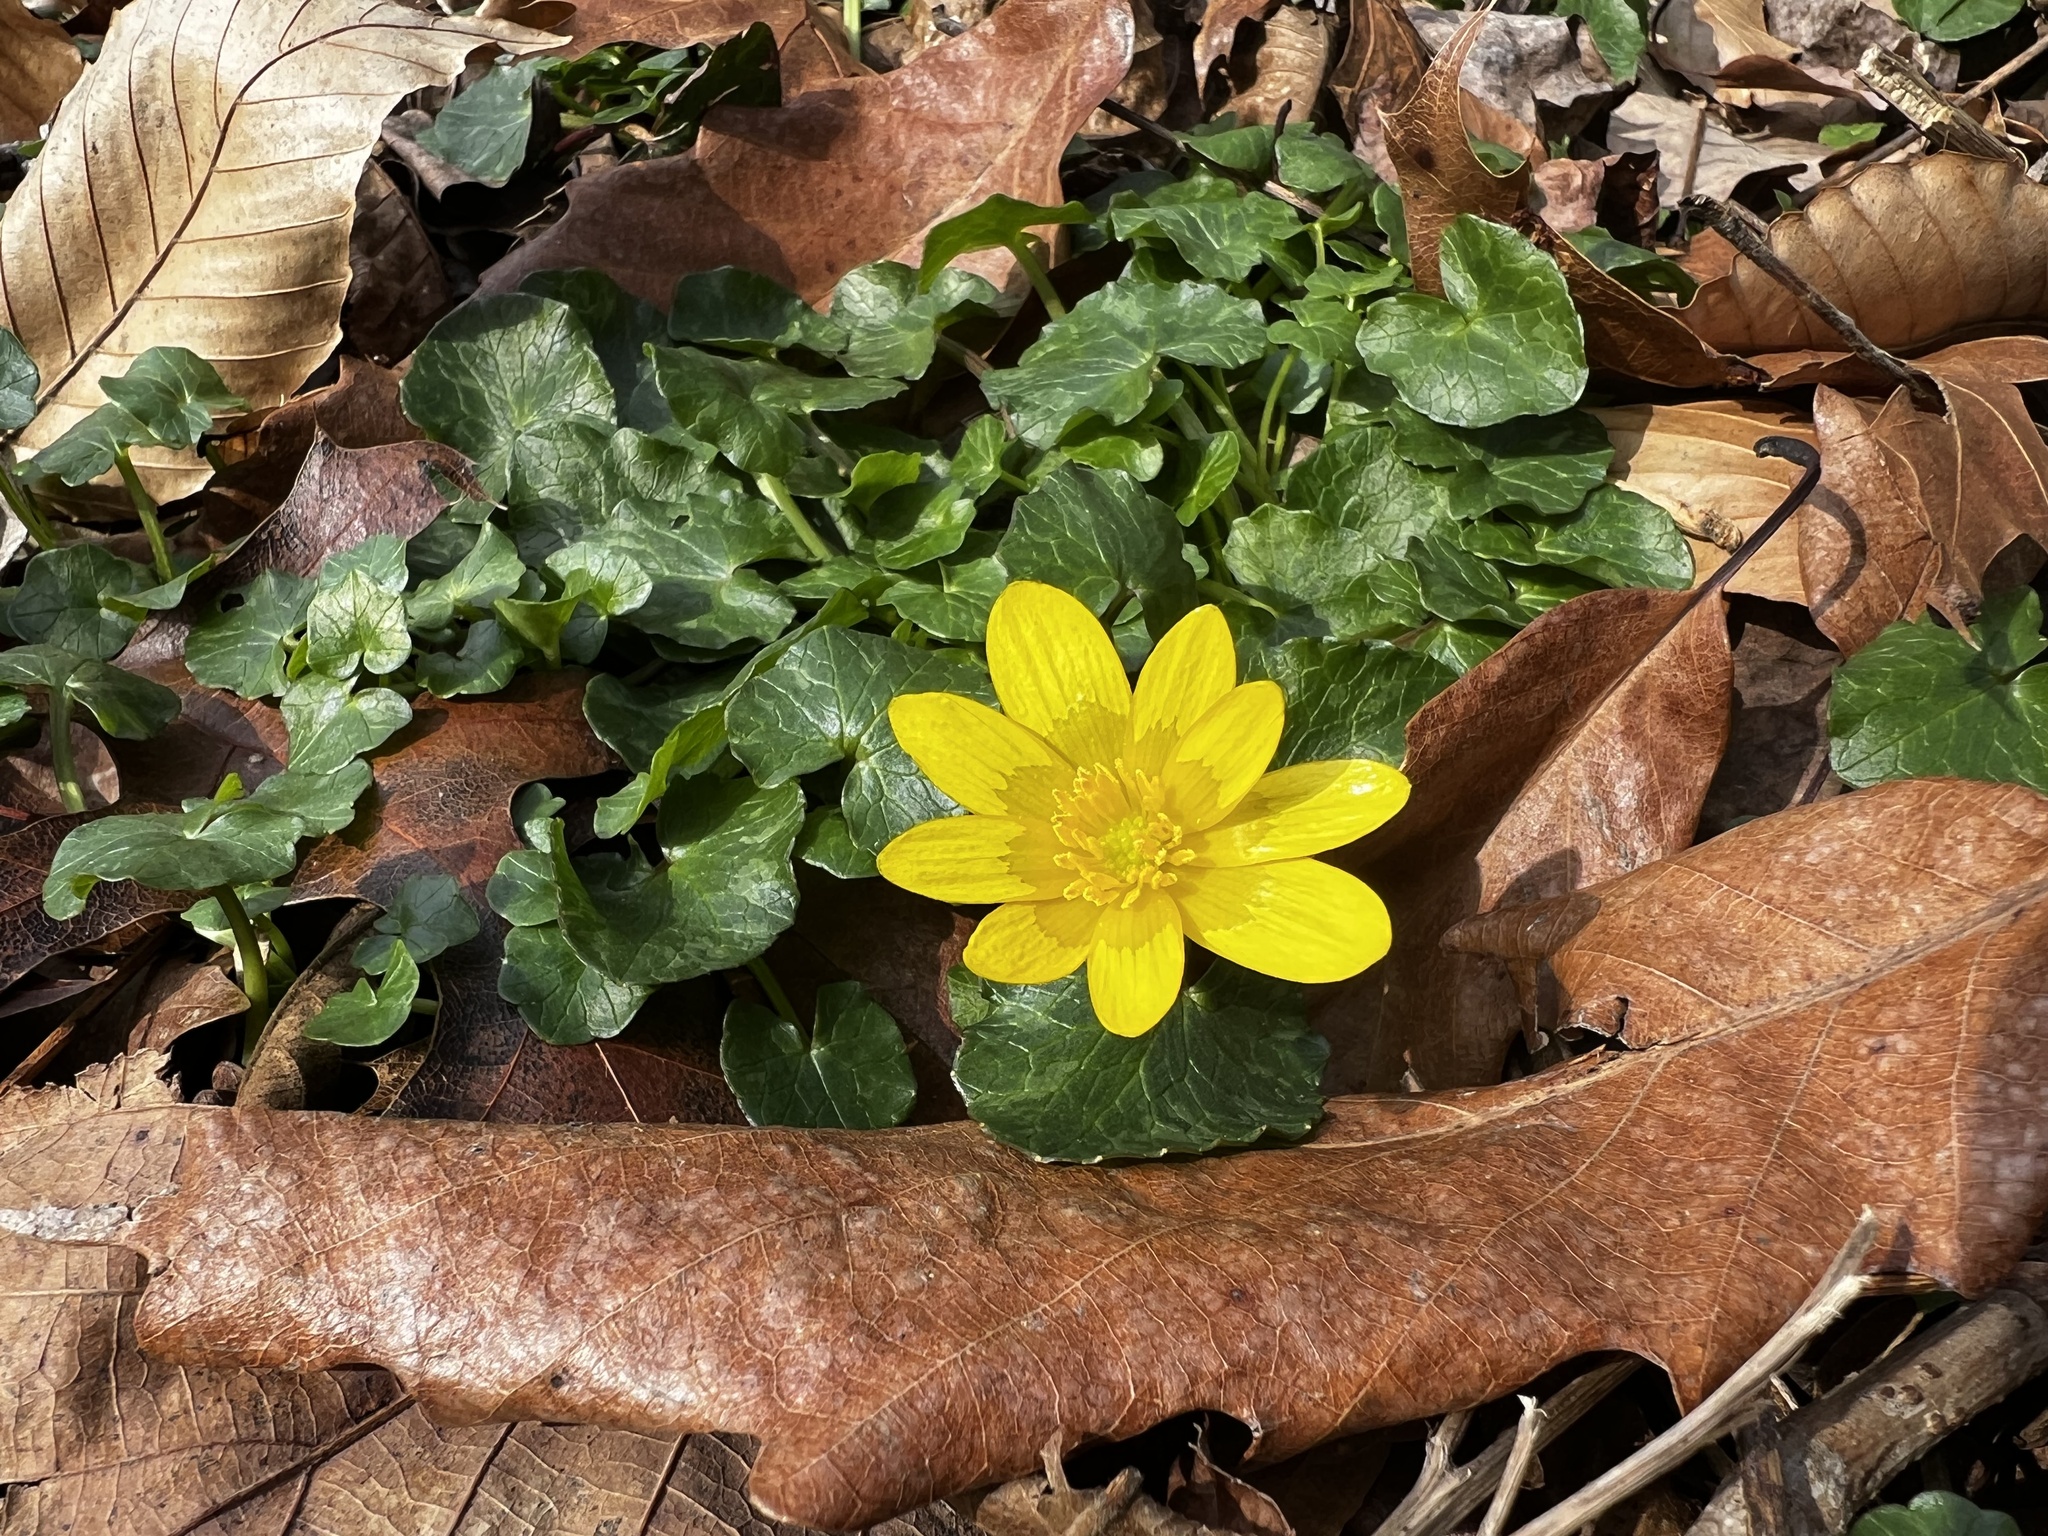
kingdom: Plantae
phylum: Tracheophyta
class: Magnoliopsida
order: Ranunculales
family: Ranunculaceae
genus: Ficaria
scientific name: Ficaria verna
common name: Lesser celandine
